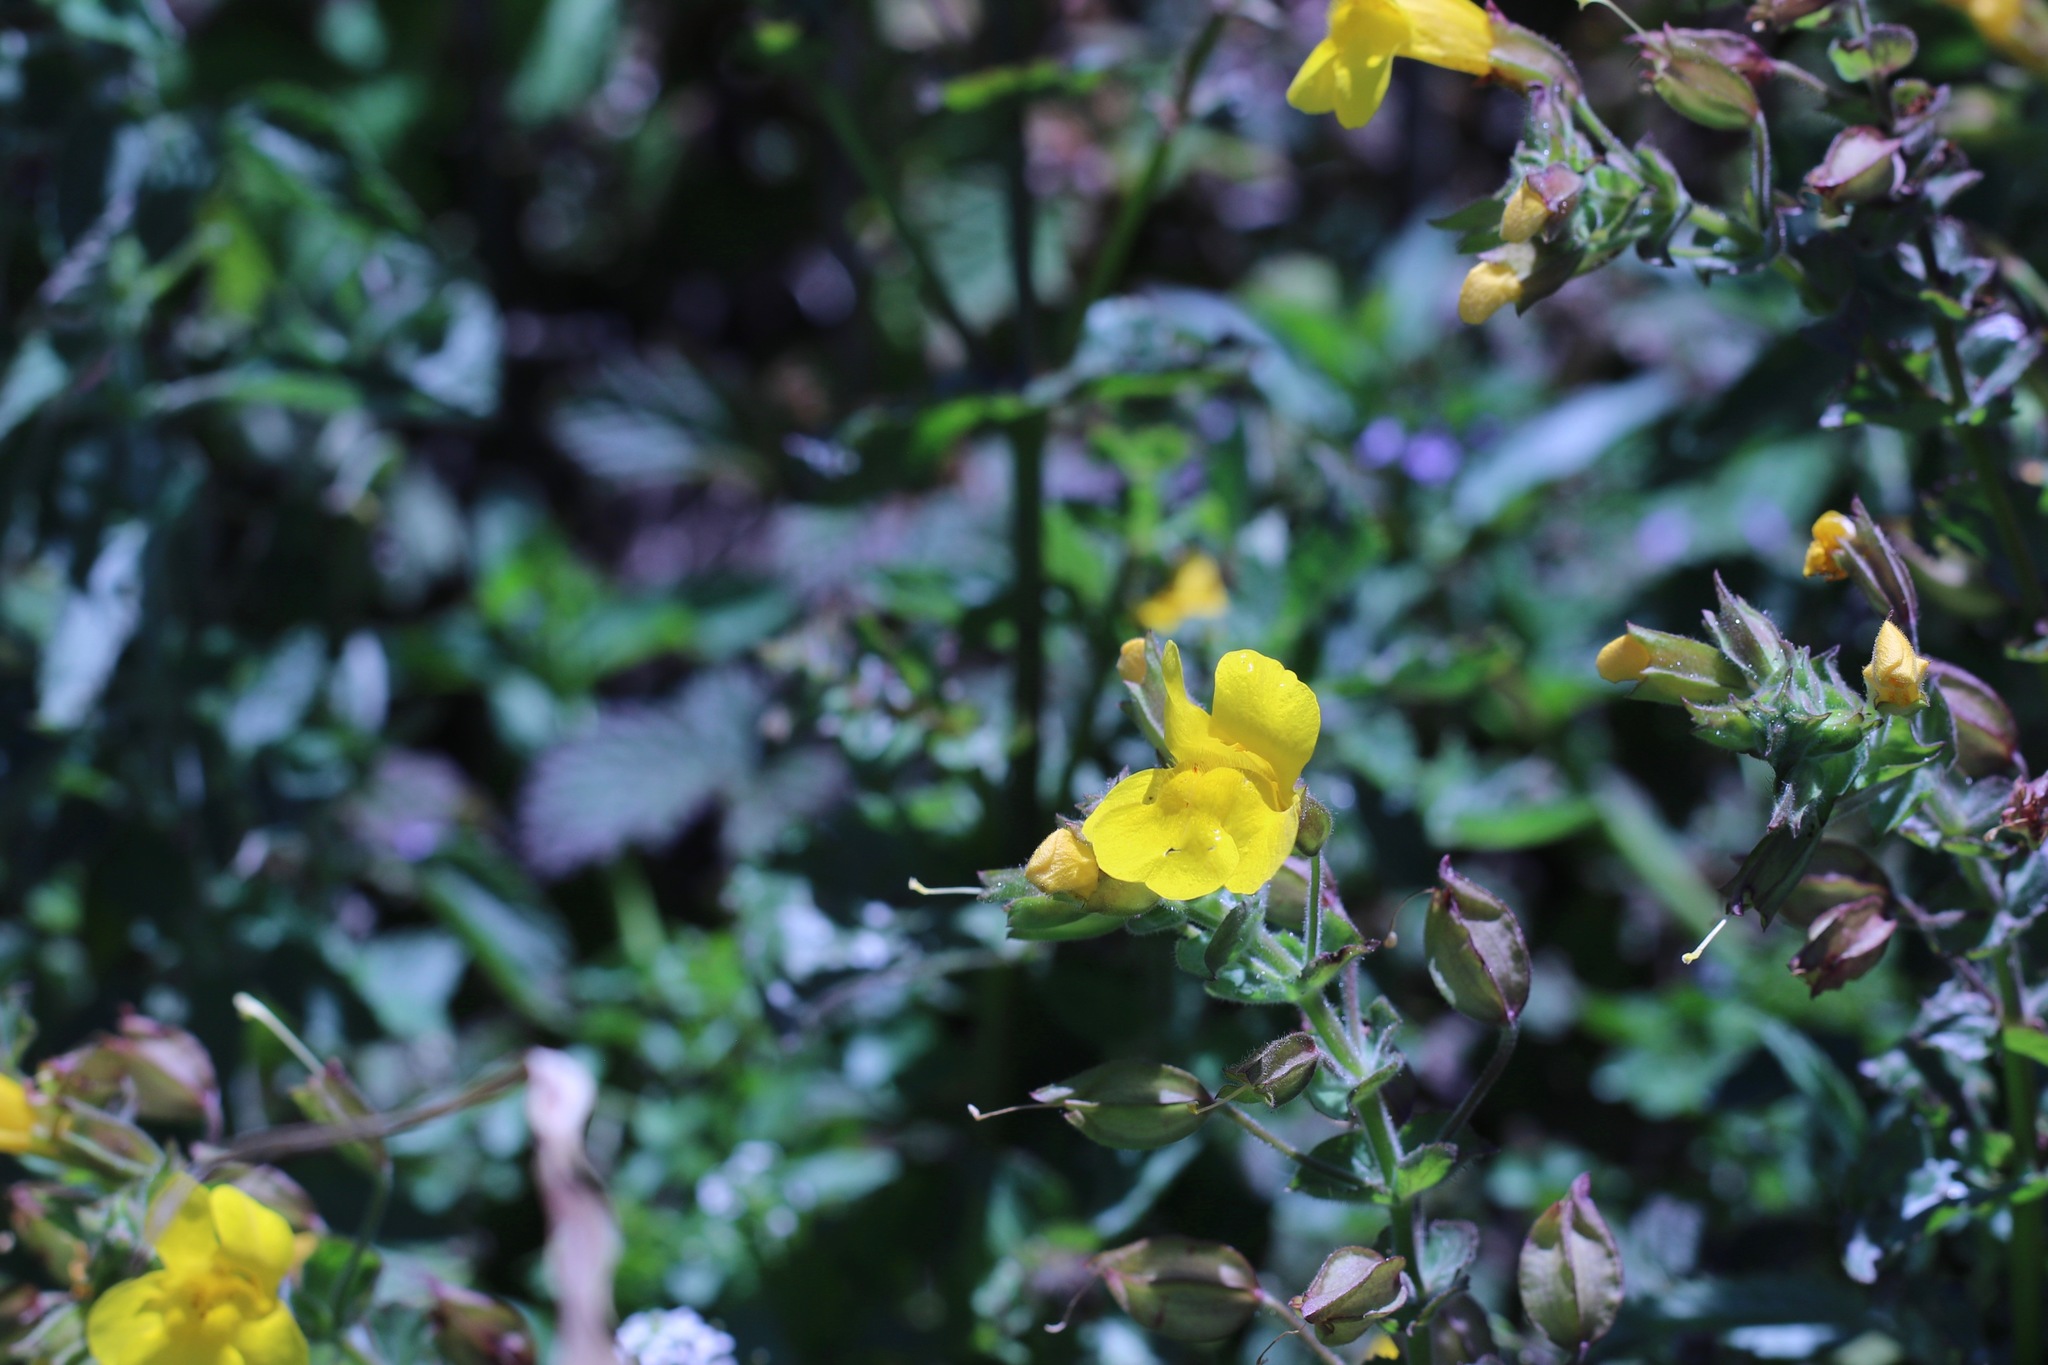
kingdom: Plantae
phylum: Tracheophyta
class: Magnoliopsida
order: Lamiales
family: Phrymaceae
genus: Erythranthe
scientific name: Erythranthe guttata
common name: Monkeyflower
